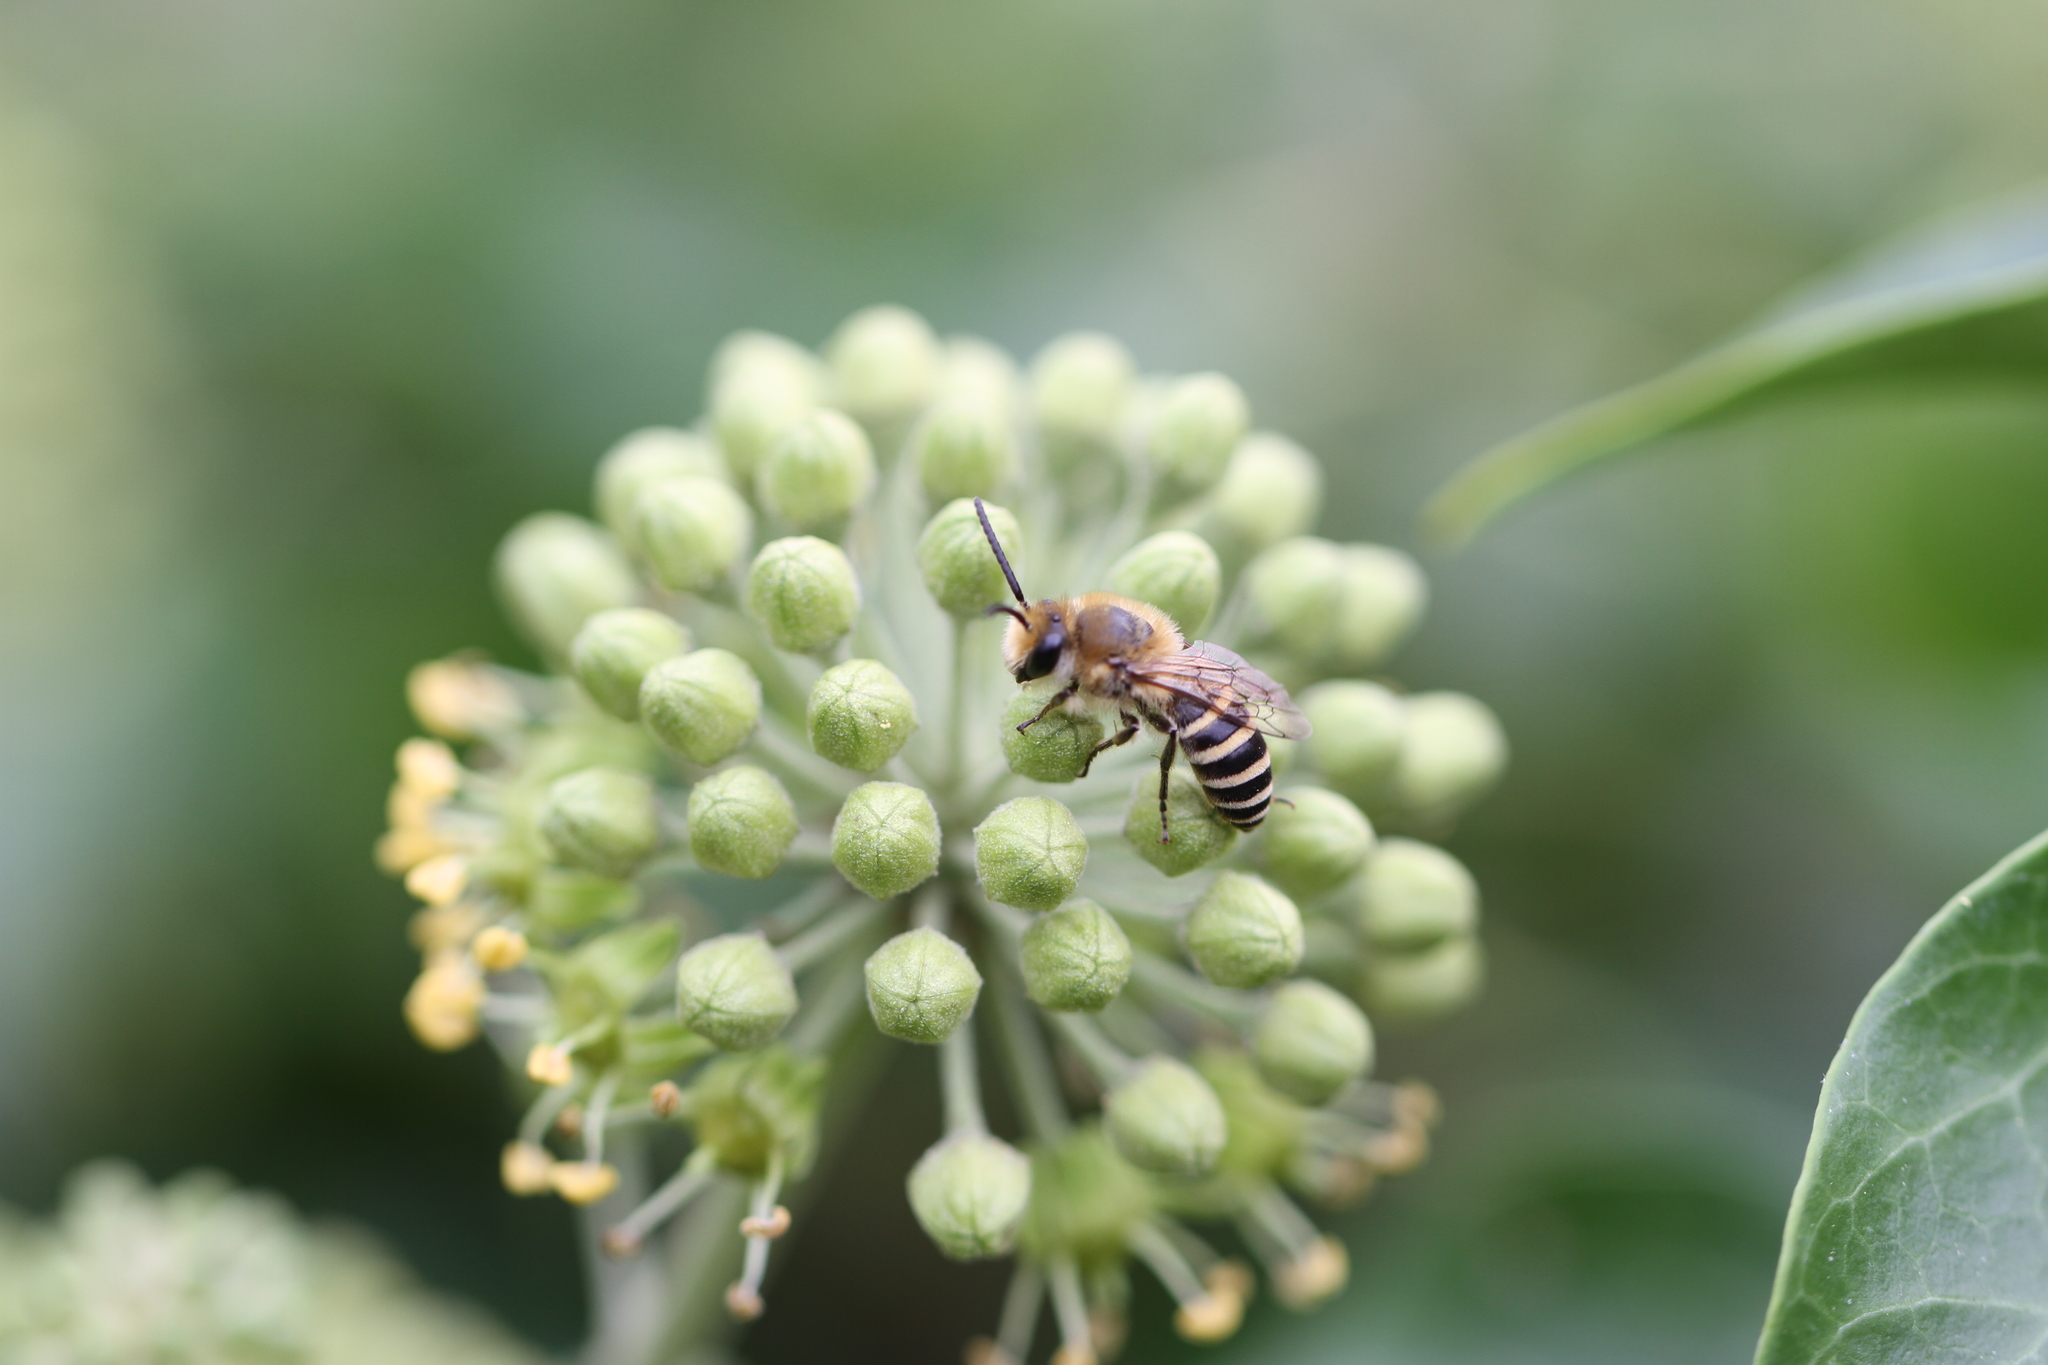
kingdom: Animalia
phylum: Arthropoda
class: Insecta
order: Hymenoptera
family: Colletidae
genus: Colletes
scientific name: Colletes hederae
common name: Ivy bee
